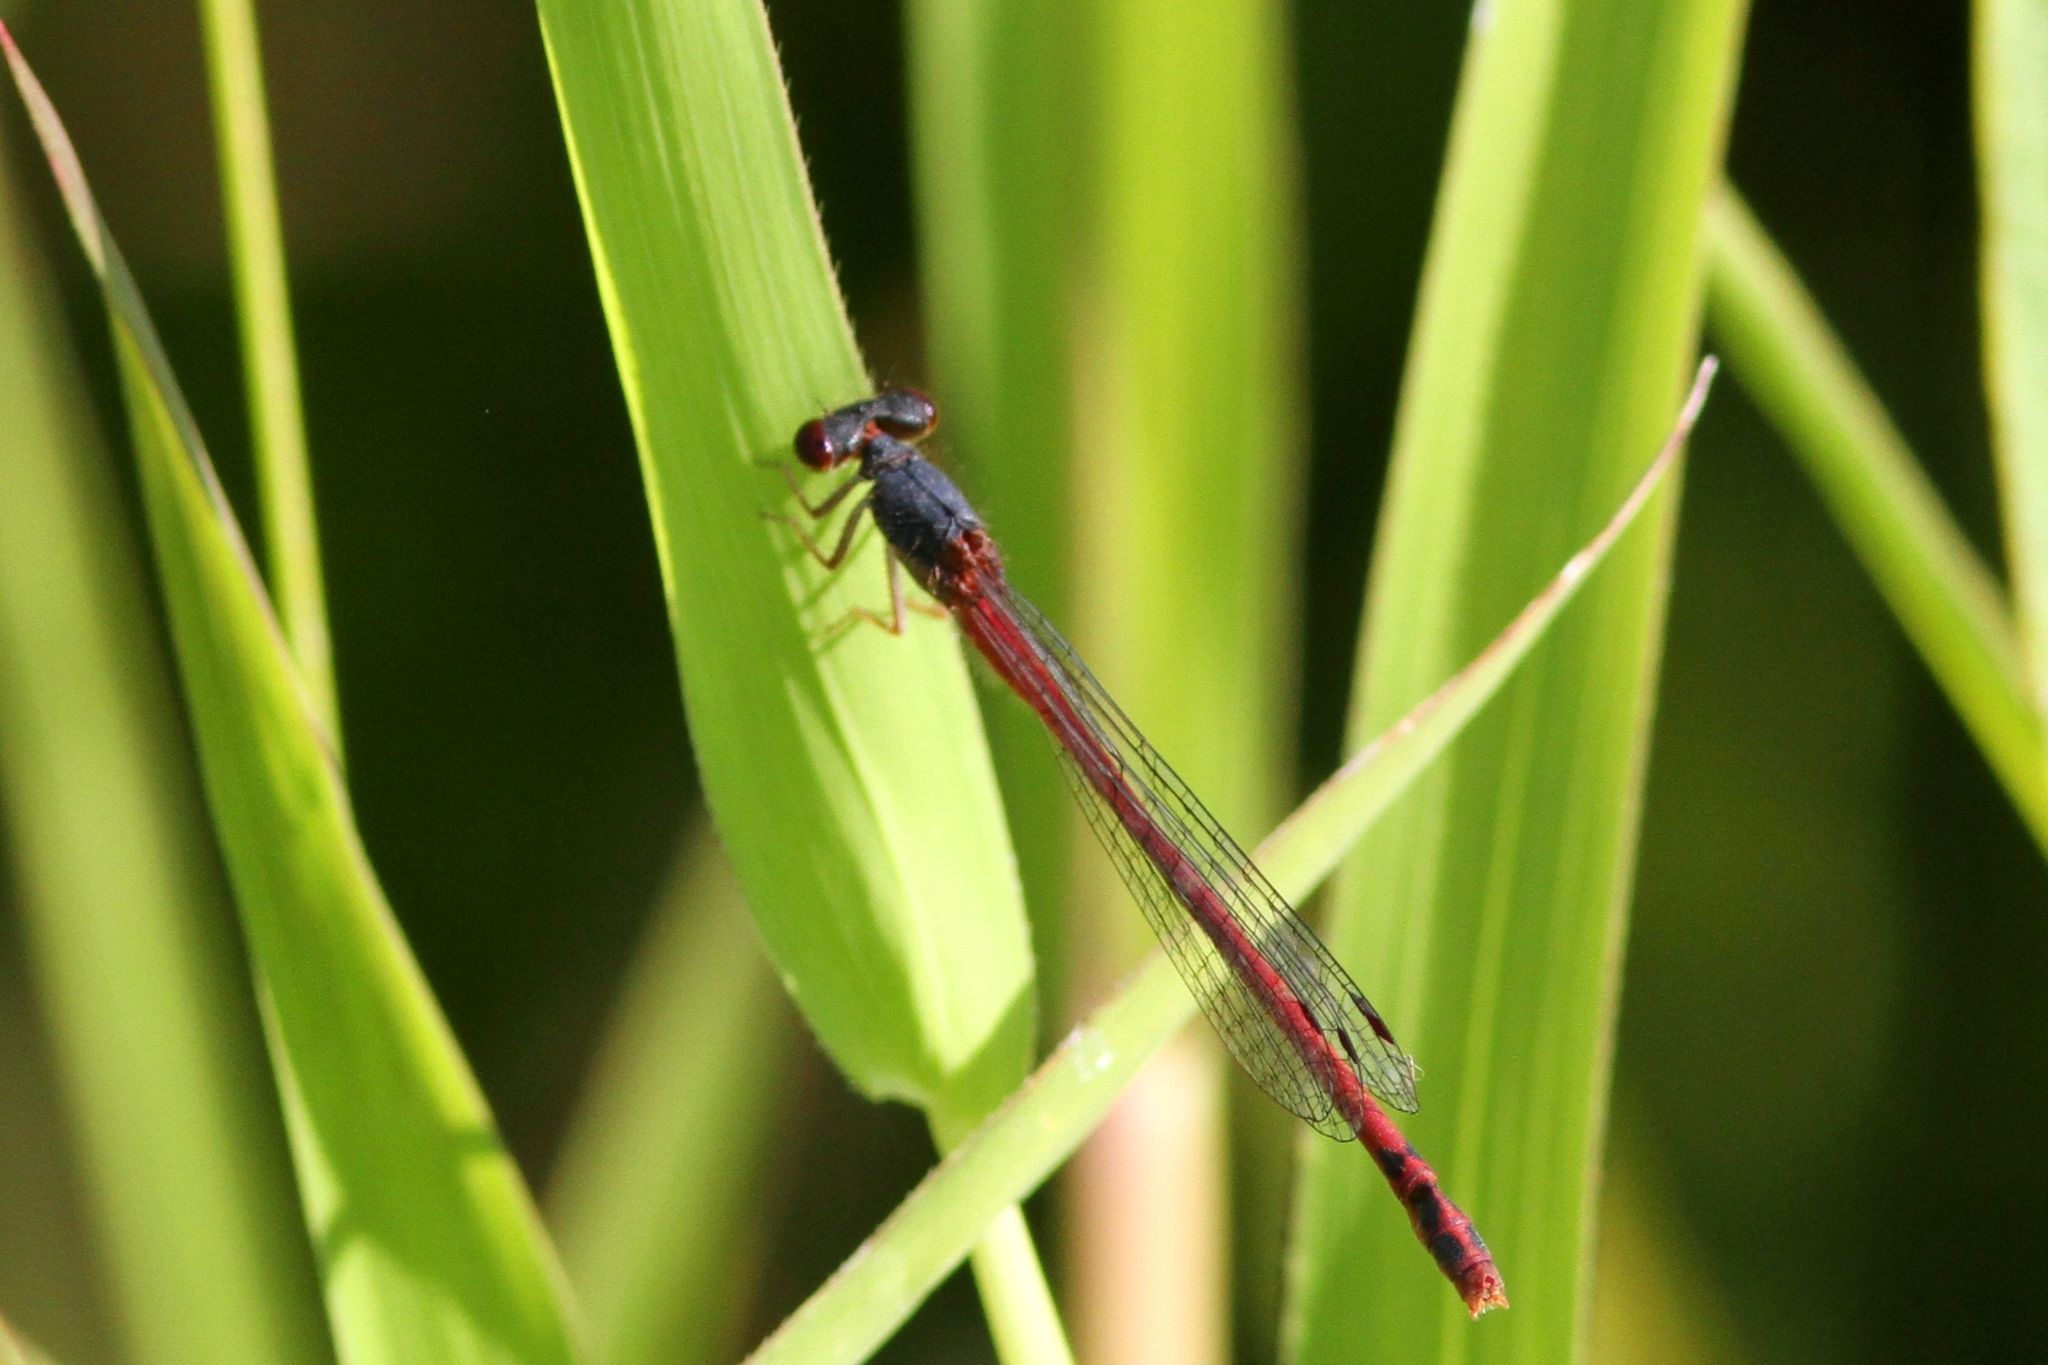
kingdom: Animalia
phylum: Arthropoda
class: Insecta
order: Odonata
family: Coenagrionidae
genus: Amphiagrion
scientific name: Amphiagrion saucium
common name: Eastern red damsel
